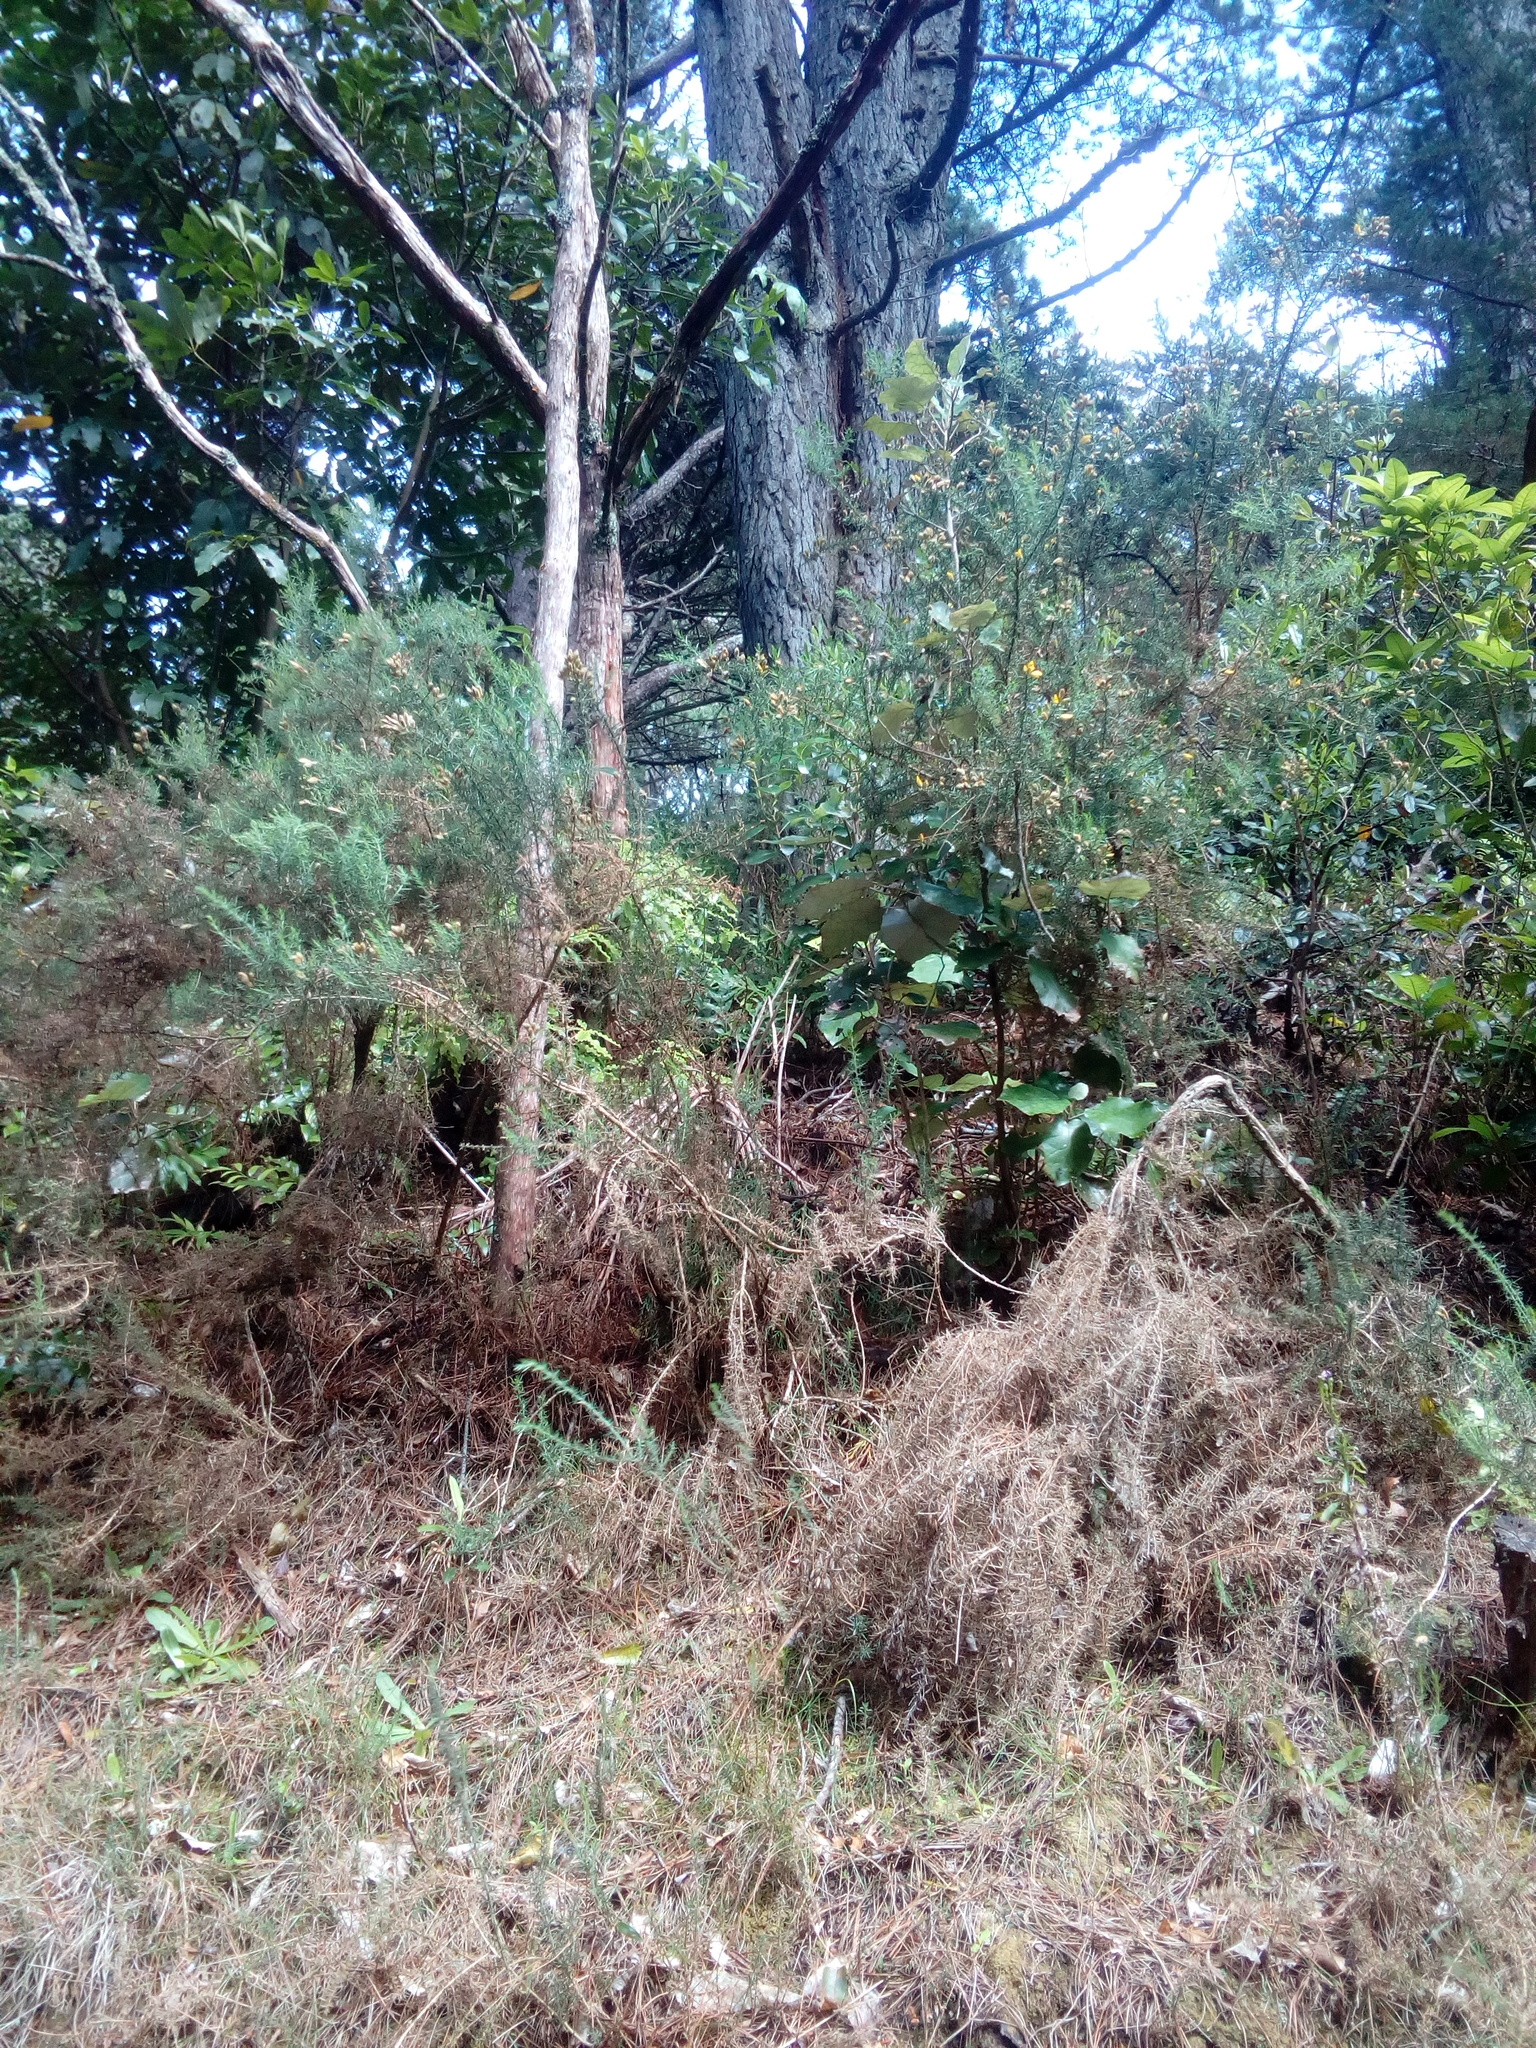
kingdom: Plantae
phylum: Tracheophyta
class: Magnoliopsida
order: Fabales
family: Fabaceae
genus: Ulex
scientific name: Ulex europaeus
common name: Common gorse
